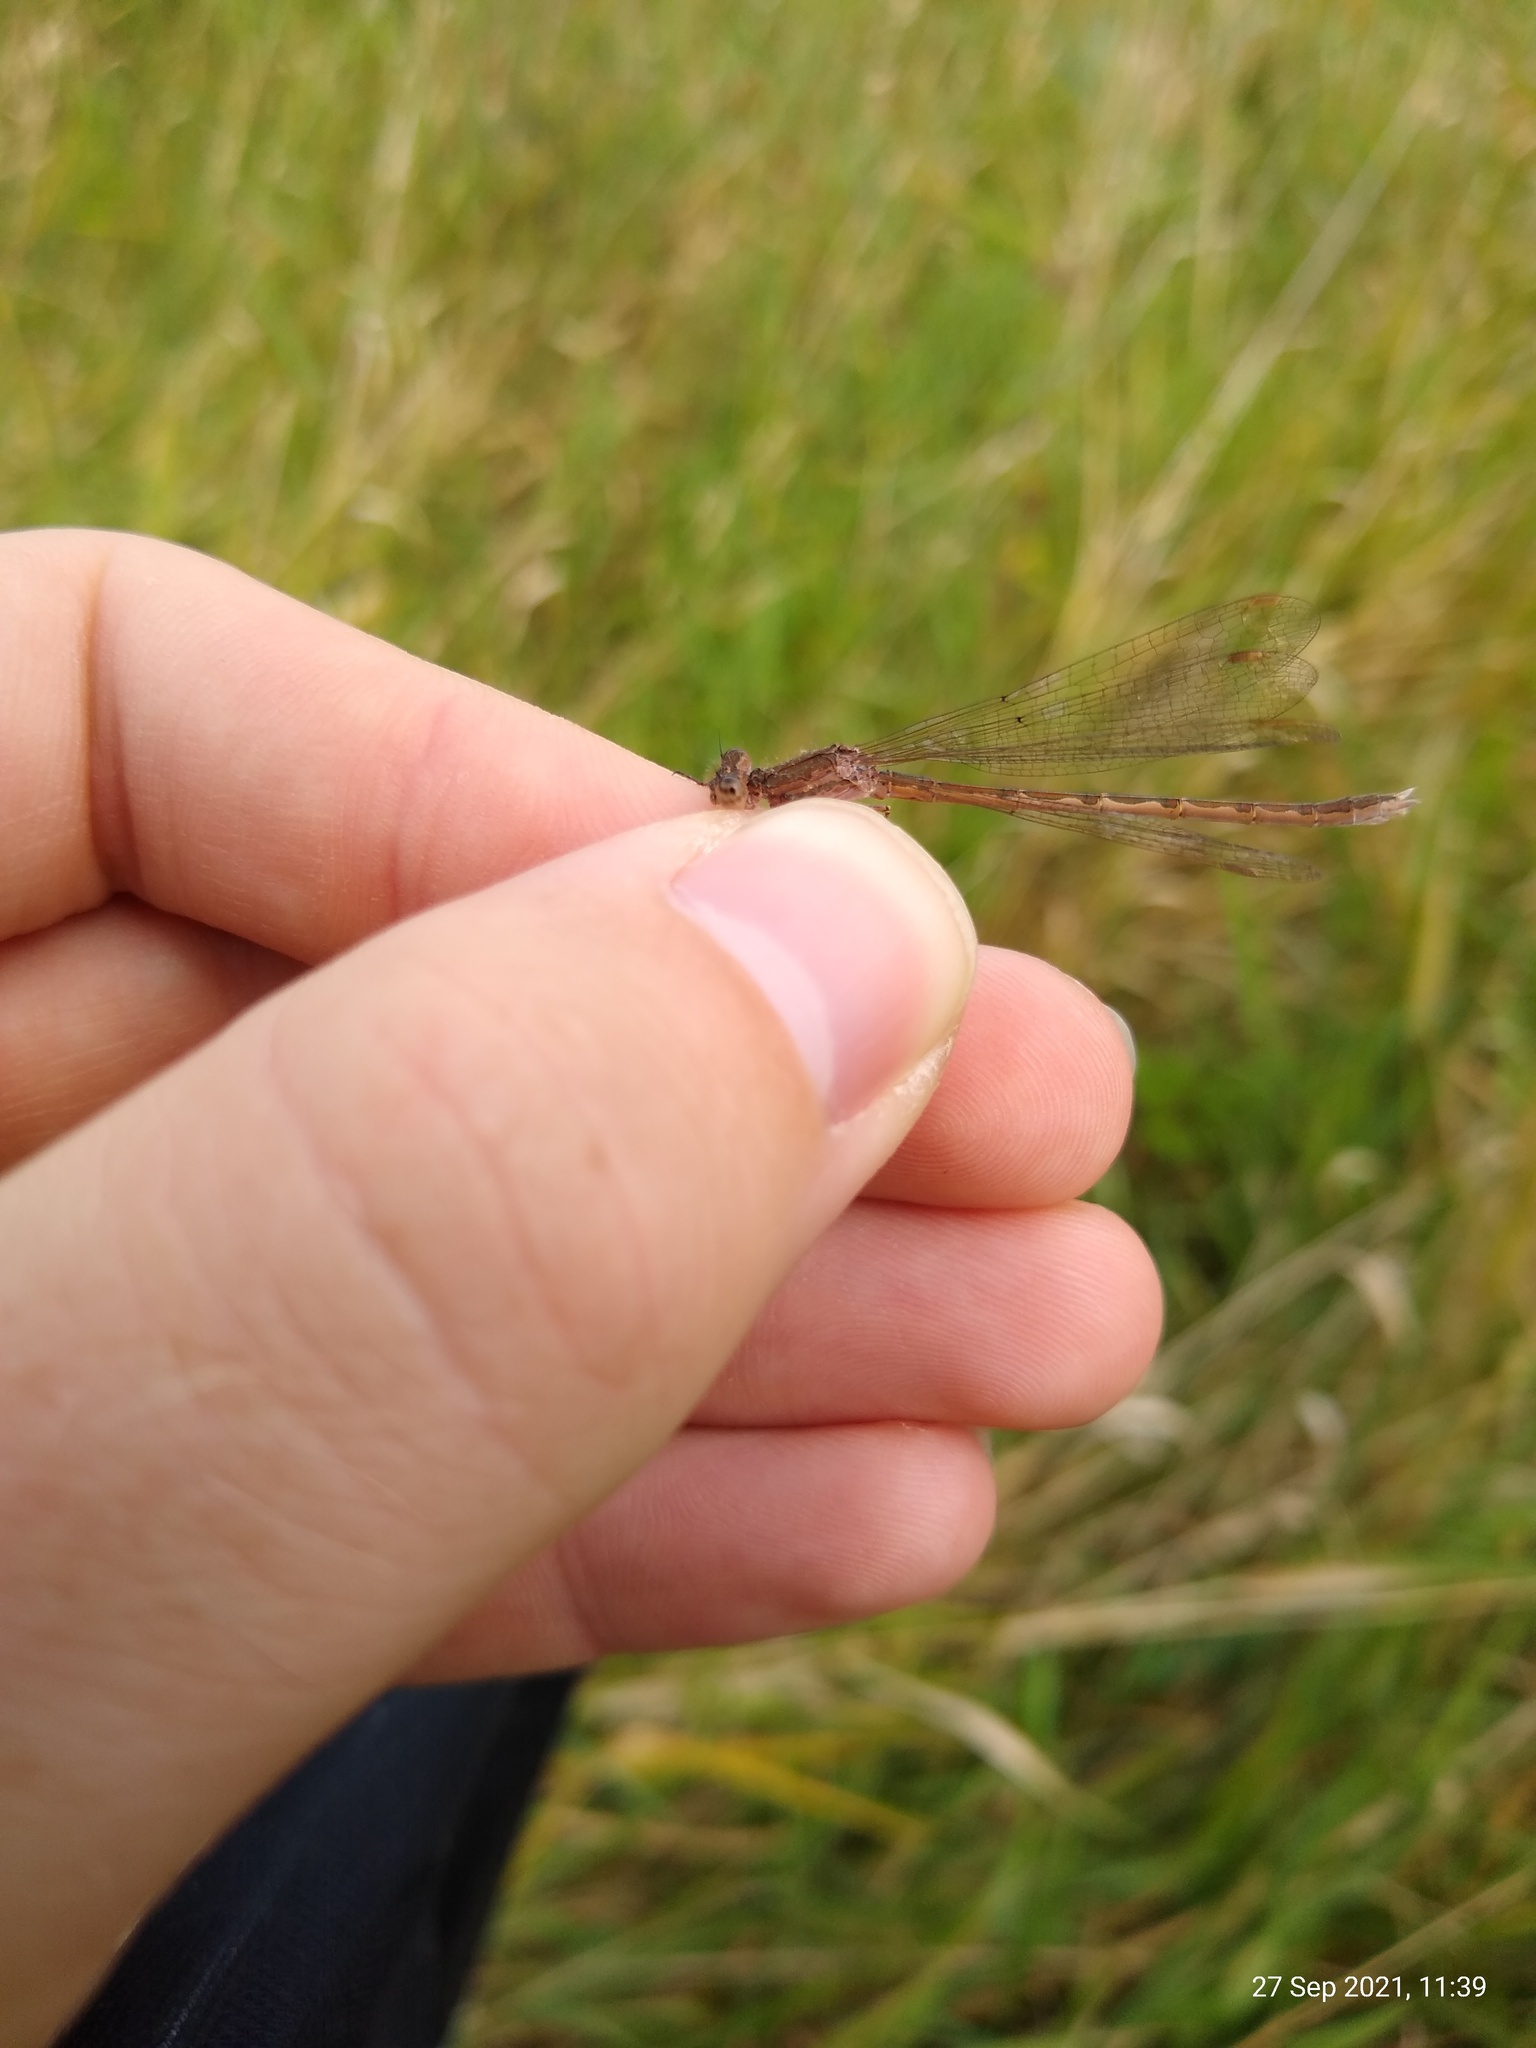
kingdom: Animalia
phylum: Arthropoda
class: Insecta
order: Odonata
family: Lestidae
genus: Sympecma
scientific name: Sympecma paedisca
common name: Siberian winter damsel
